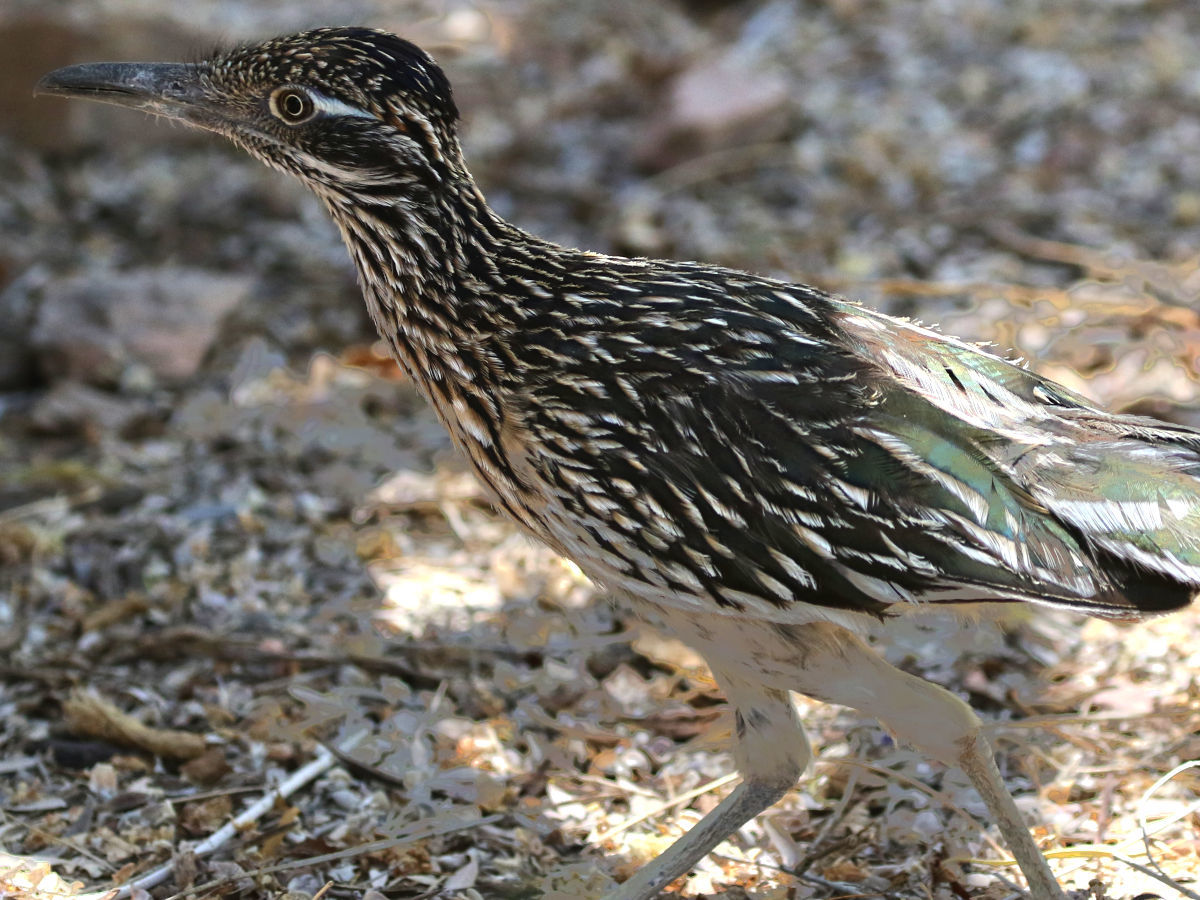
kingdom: Animalia
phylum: Chordata
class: Aves
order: Cuculiformes
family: Cuculidae
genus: Geococcyx
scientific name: Geococcyx californianus
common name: Greater roadrunner
